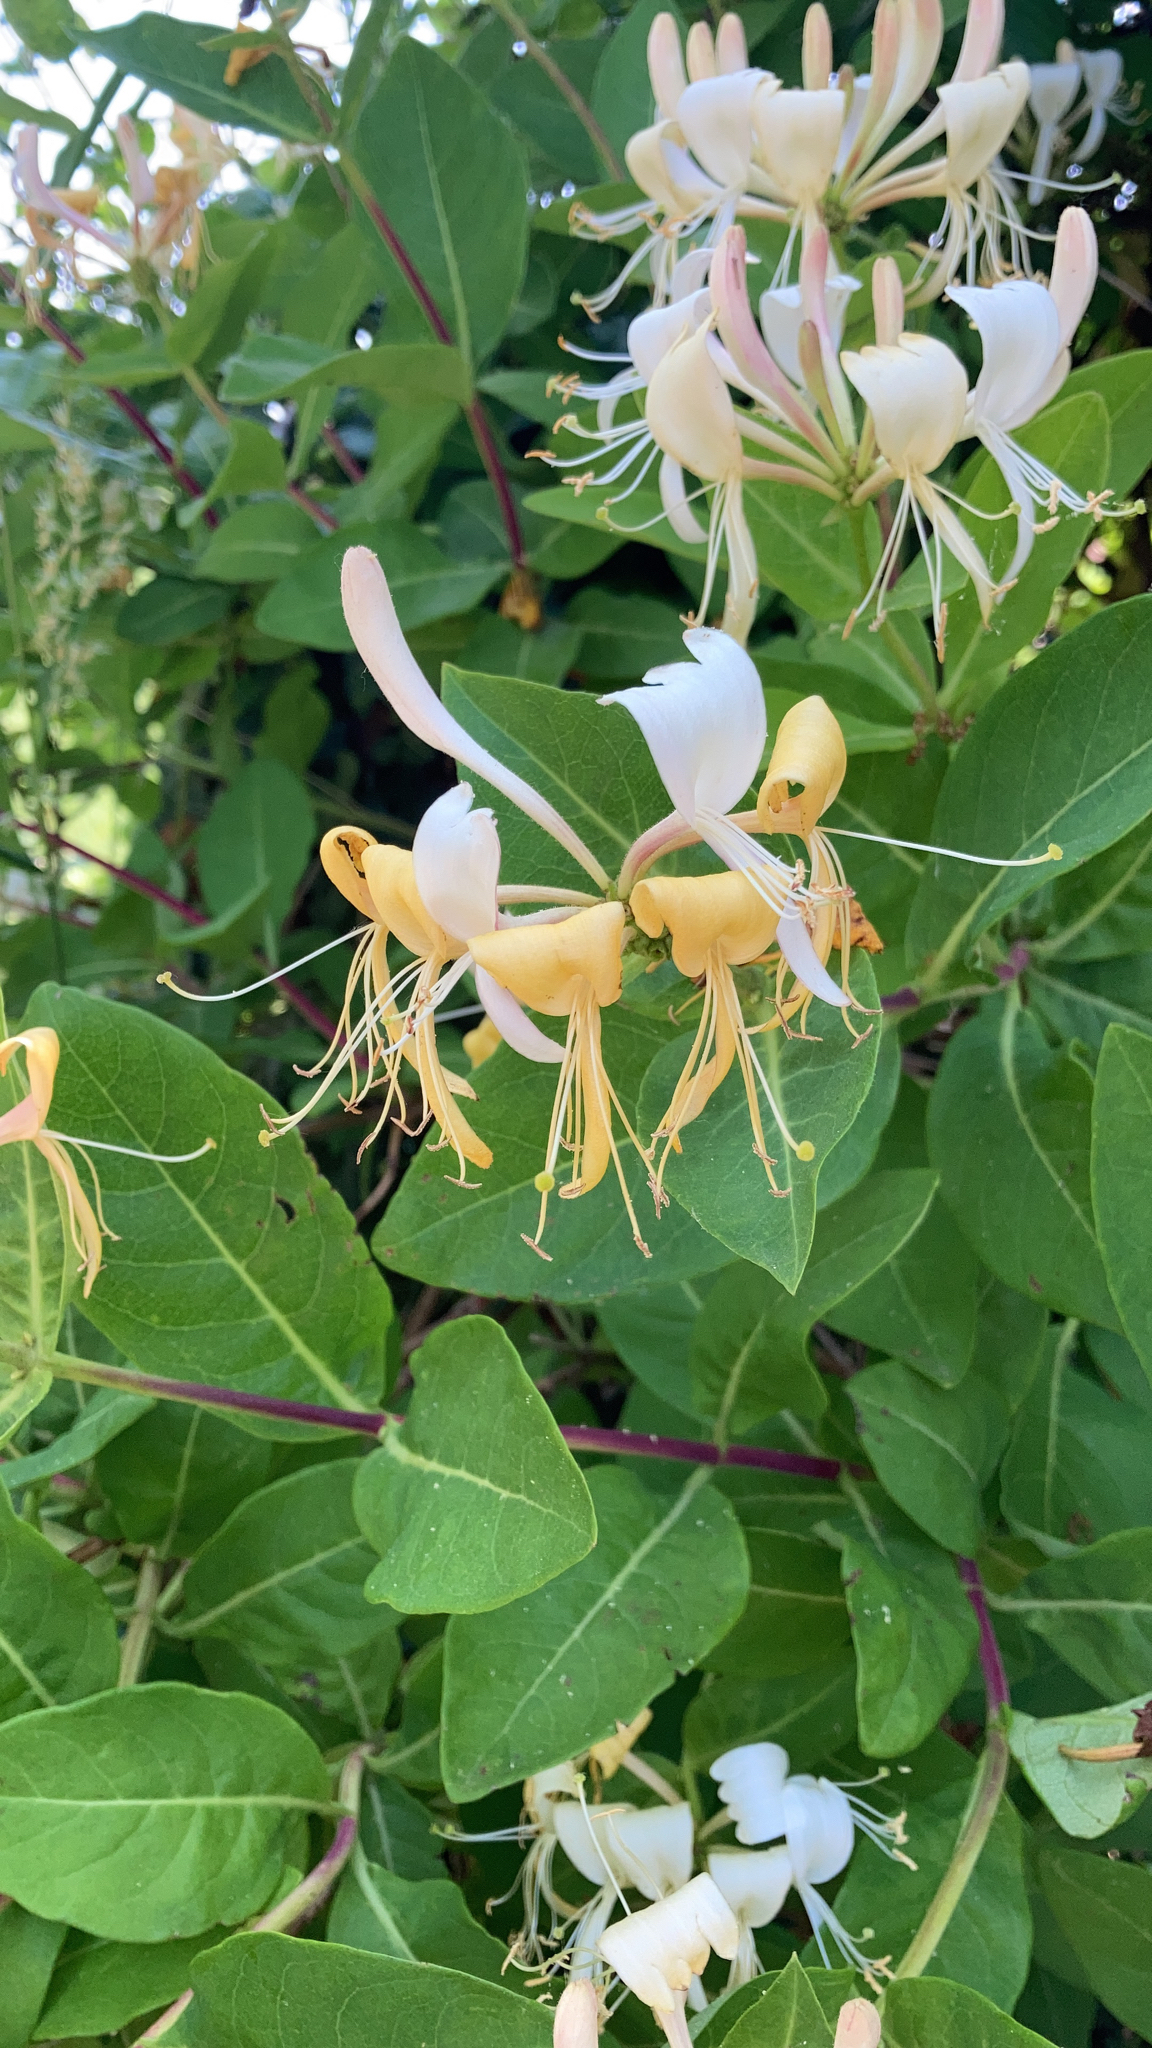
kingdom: Plantae
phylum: Tracheophyta
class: Magnoliopsida
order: Dipsacales
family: Caprifoliaceae
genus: Lonicera
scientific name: Lonicera periclymenum
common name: European honeysuckle
